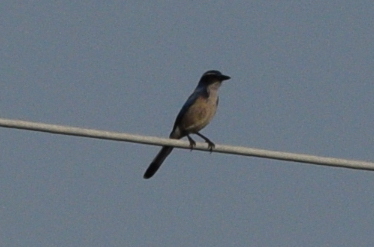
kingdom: Animalia
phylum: Chordata
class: Aves
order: Passeriformes
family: Corvidae
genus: Aphelocoma
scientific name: Aphelocoma californica
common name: California scrub-jay
